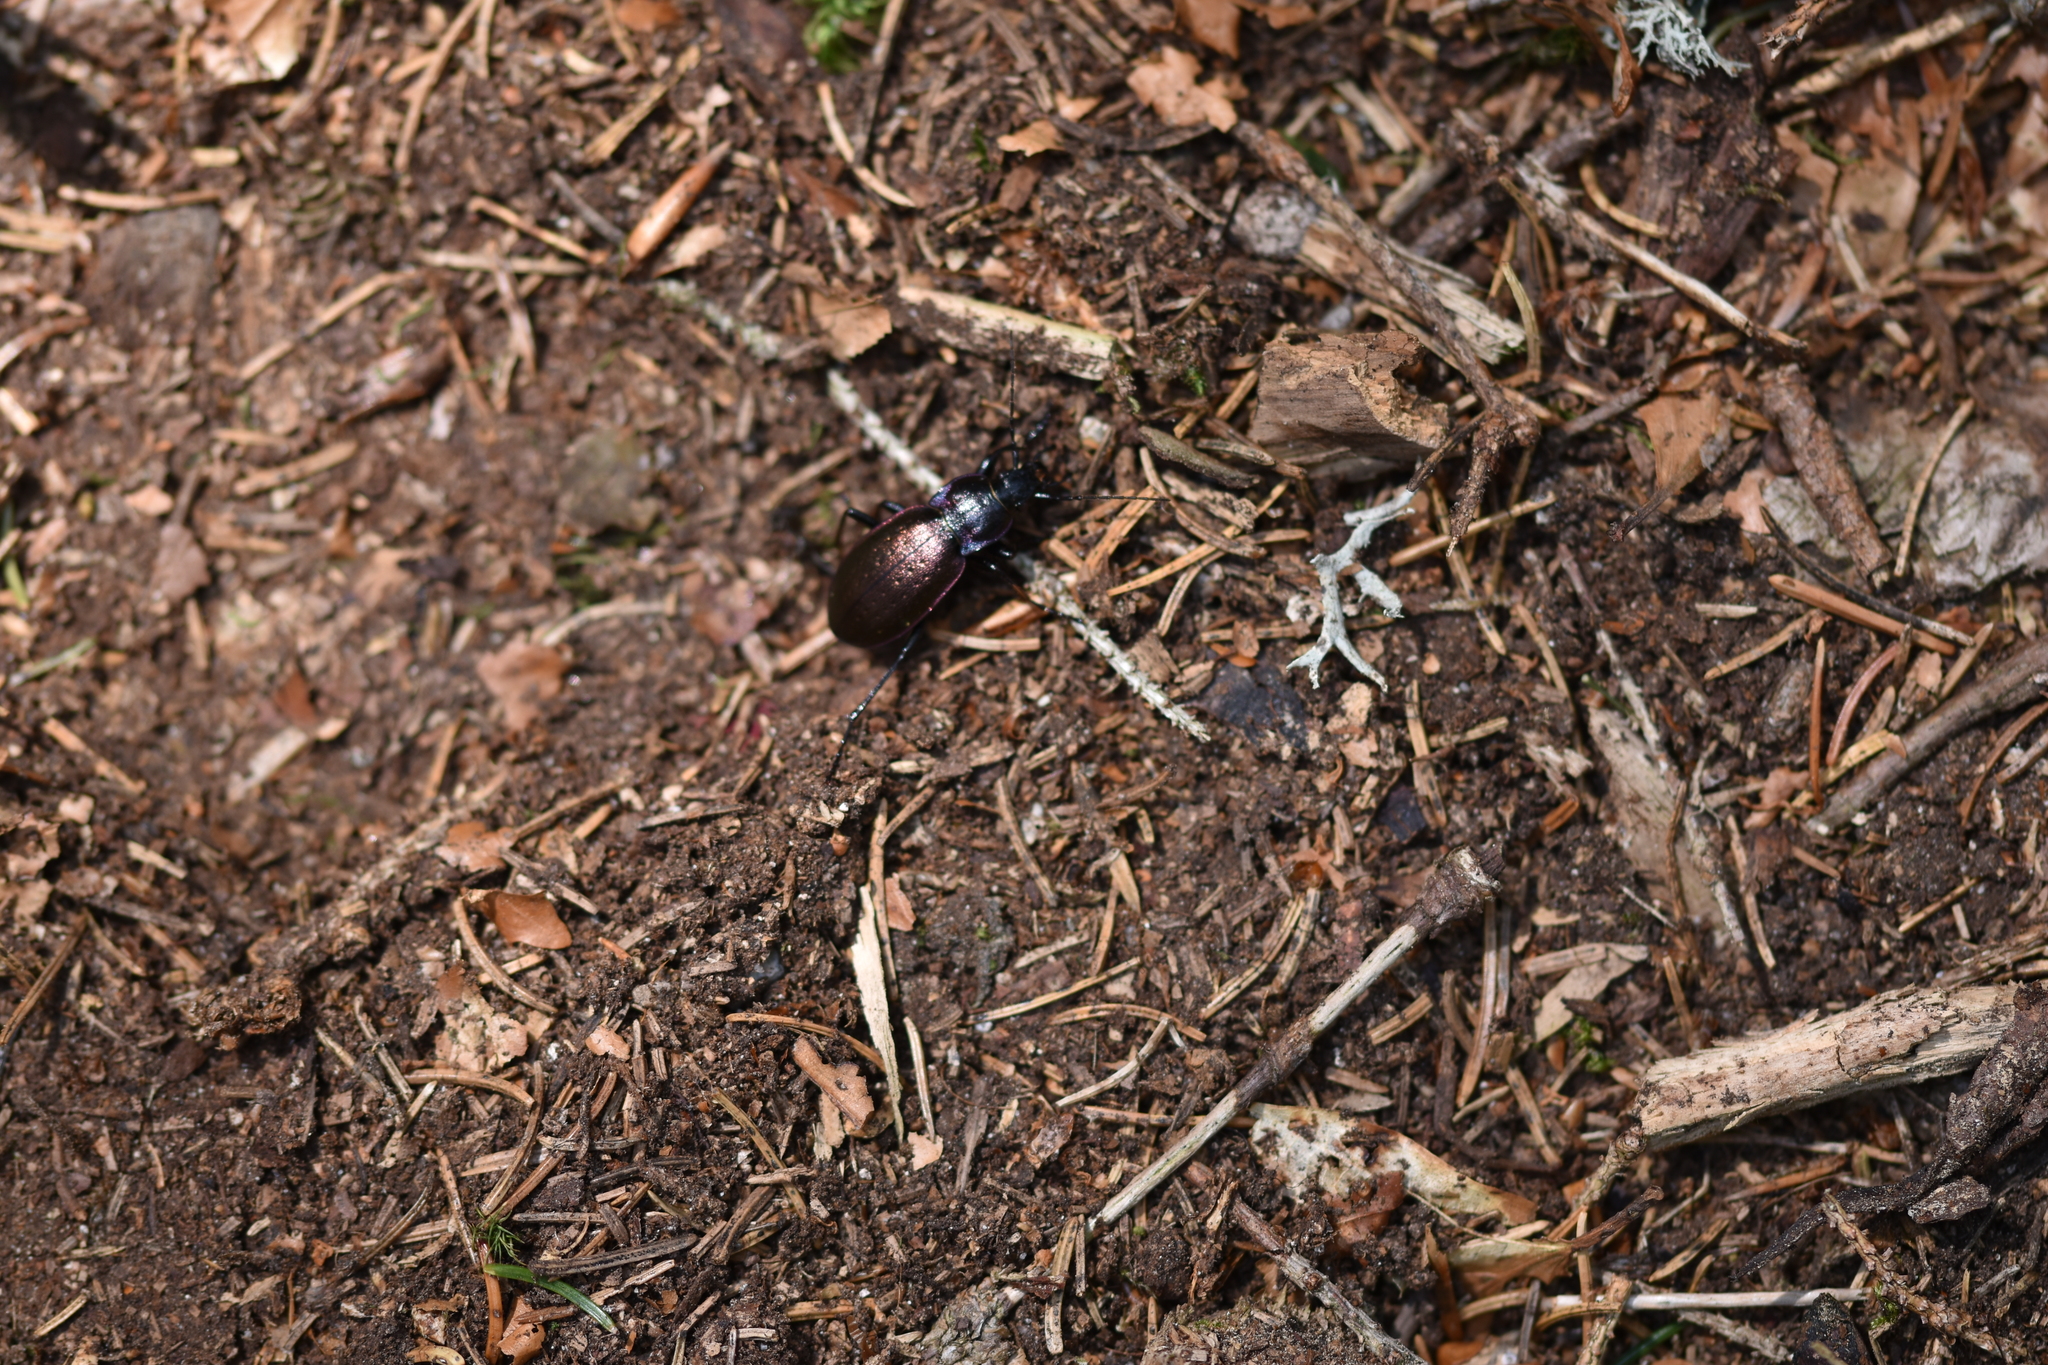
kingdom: Animalia
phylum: Arthropoda
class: Insecta
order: Coleoptera
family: Carabidae
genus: Carabus
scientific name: Carabus nemoralis
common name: European ground beetle
